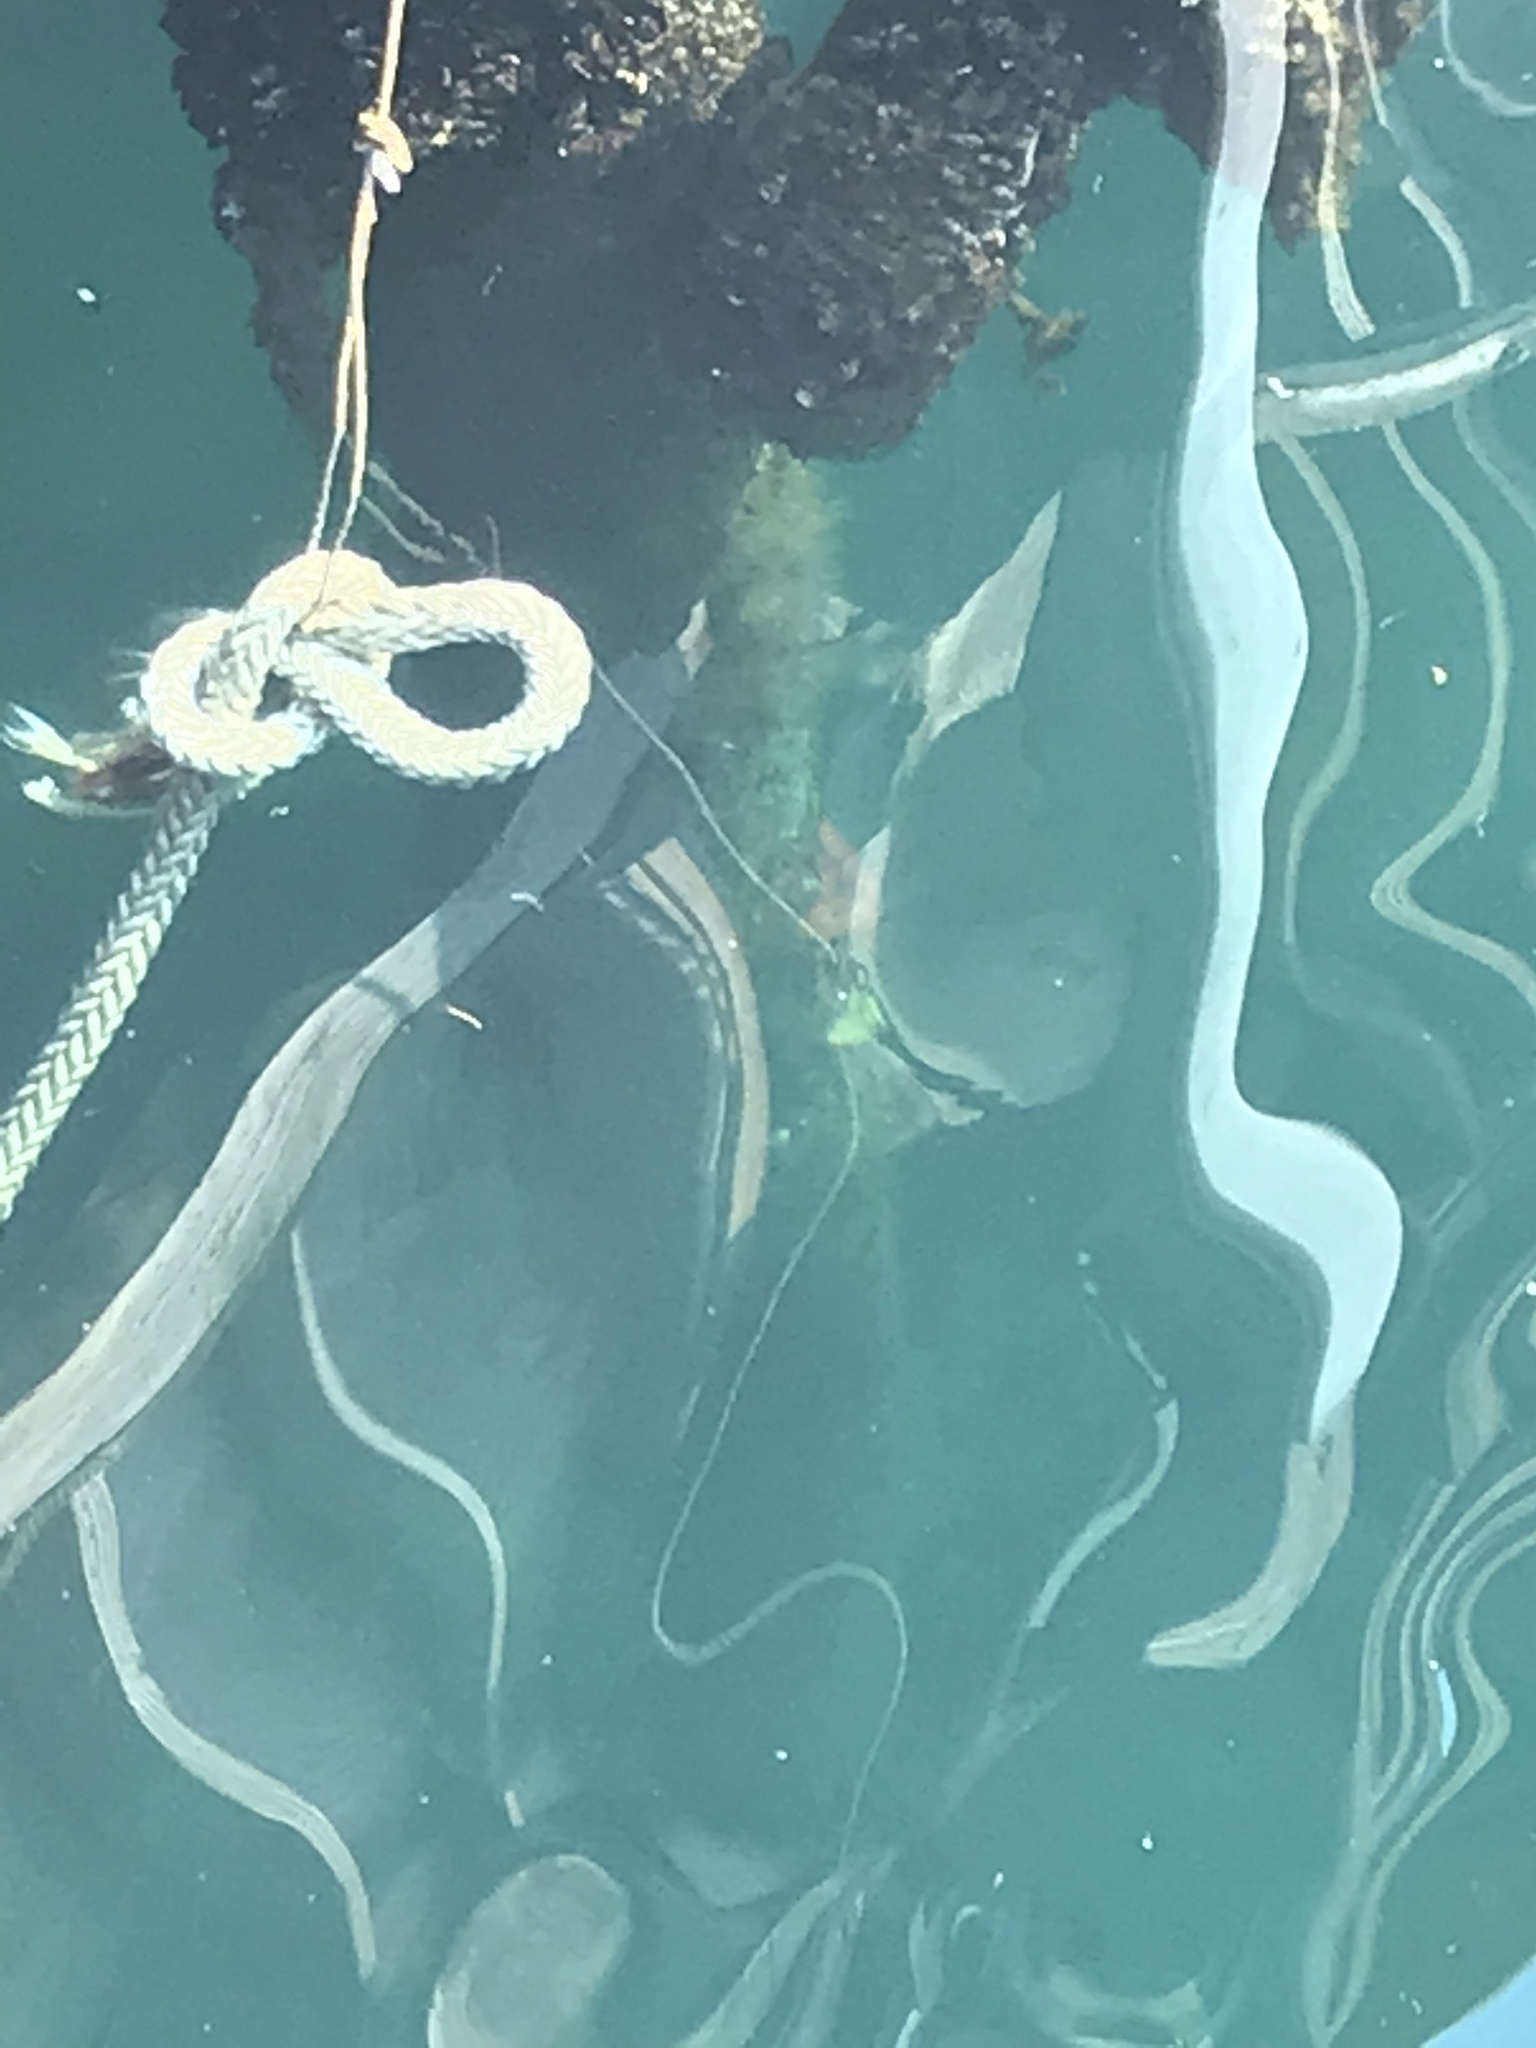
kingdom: Animalia
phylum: Echinodermata
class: Asteroidea
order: Valvatida
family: Asterinidae
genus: Patiria
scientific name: Patiria miniata
